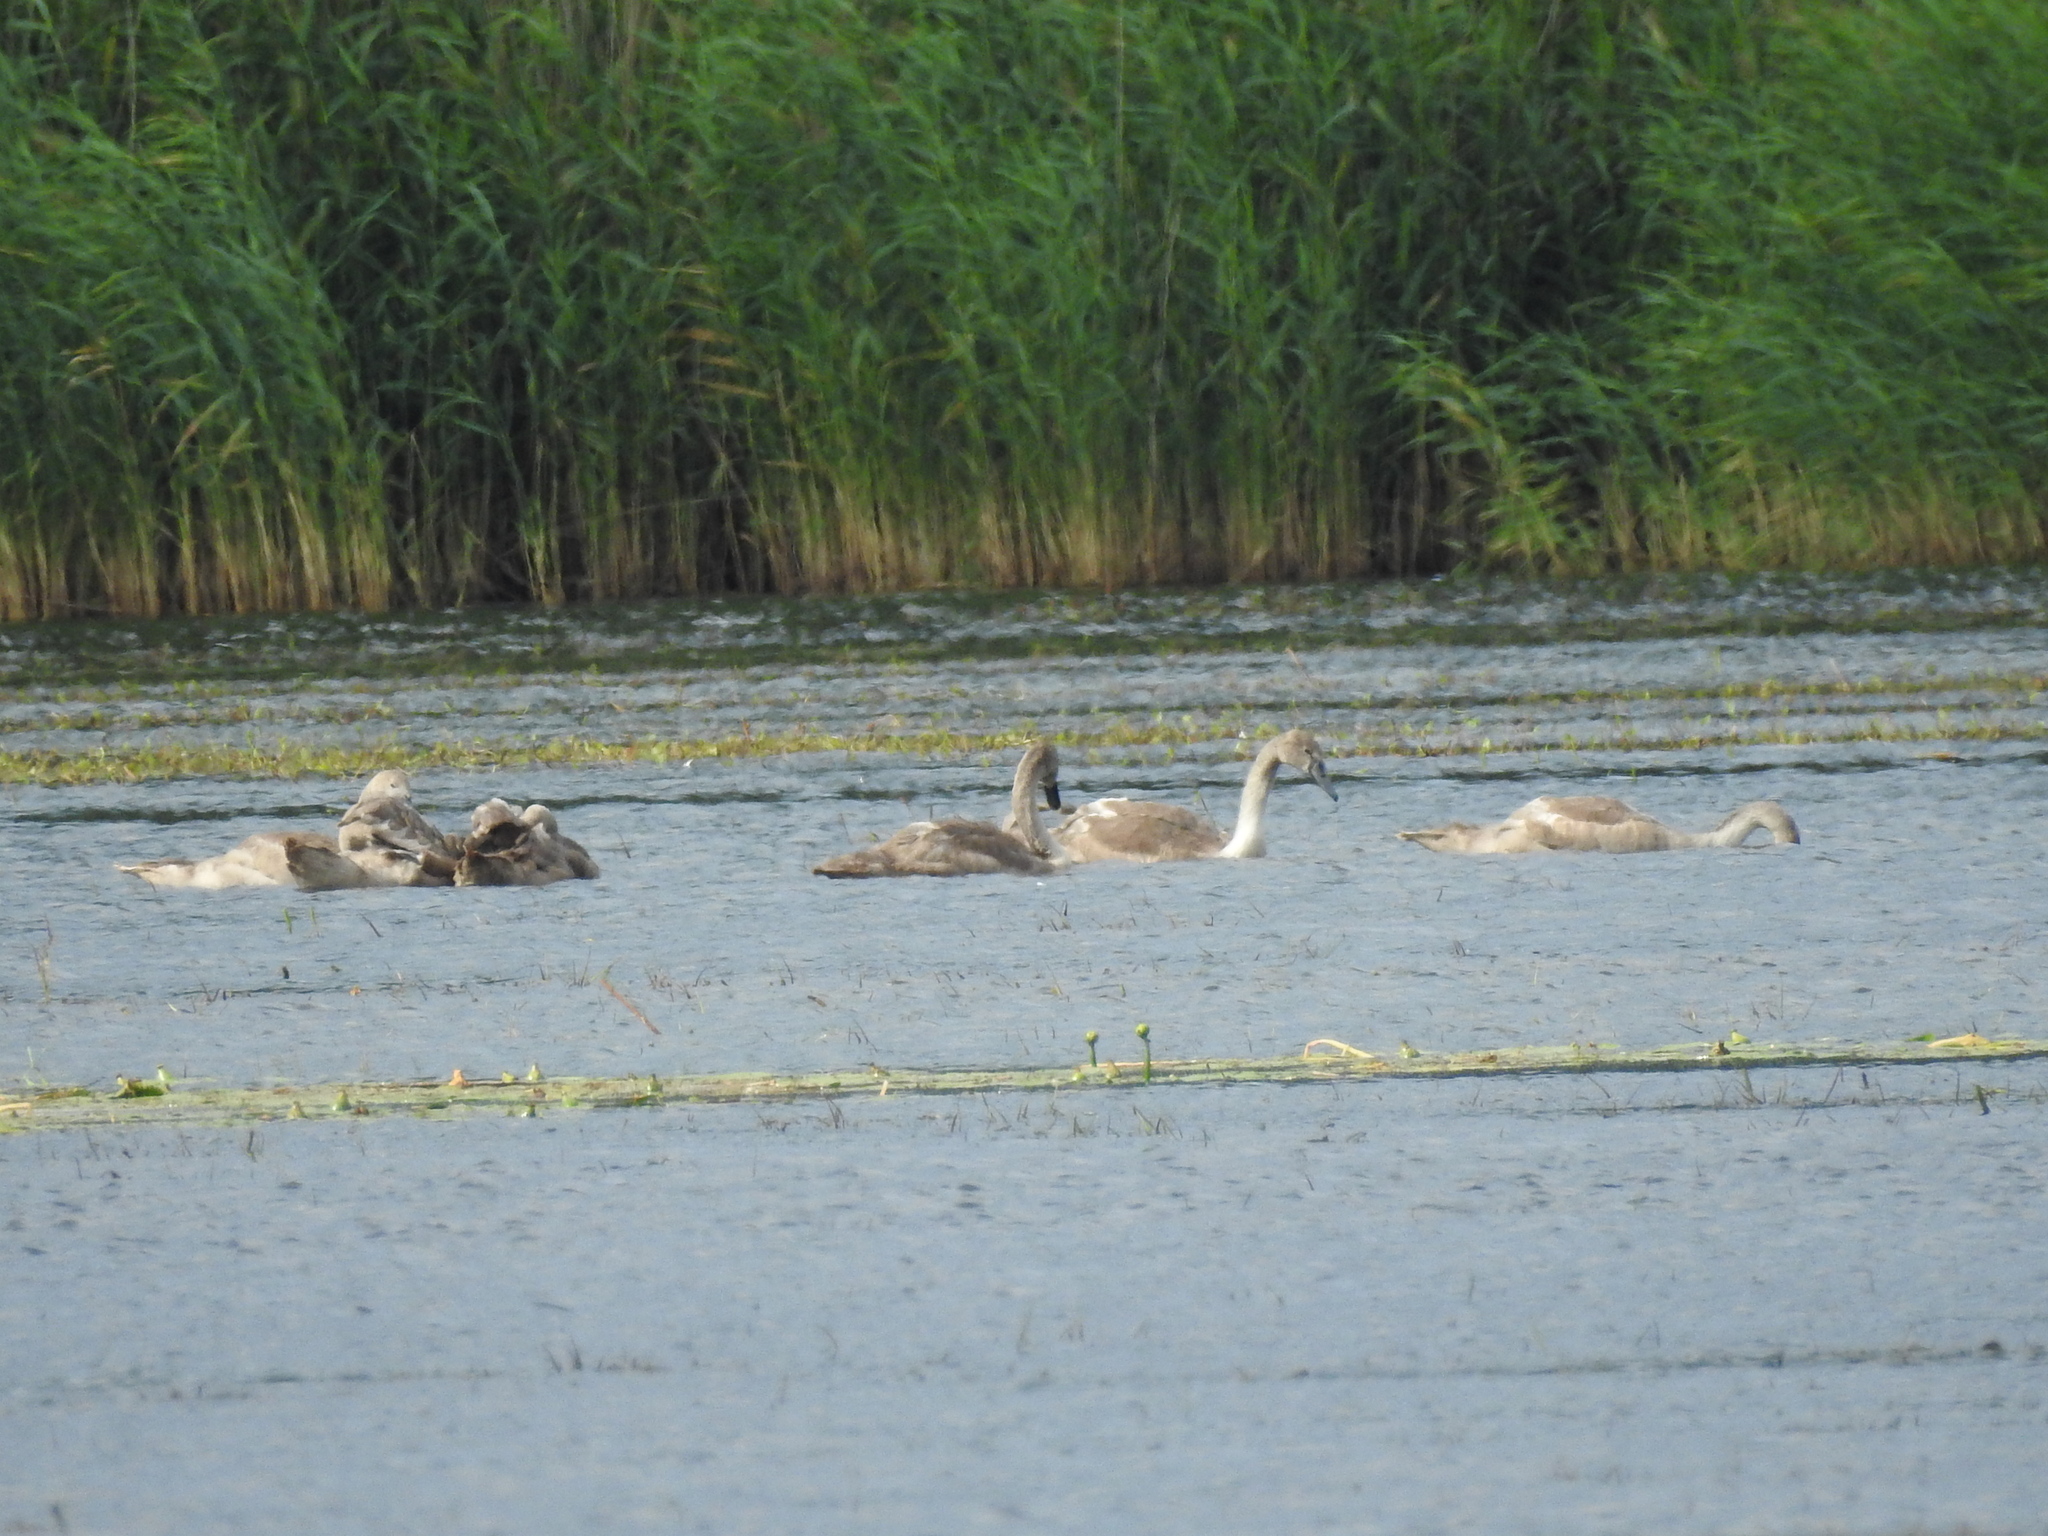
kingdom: Animalia
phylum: Chordata
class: Aves
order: Anseriformes
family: Anatidae
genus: Cygnus
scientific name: Cygnus olor
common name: Mute swan
